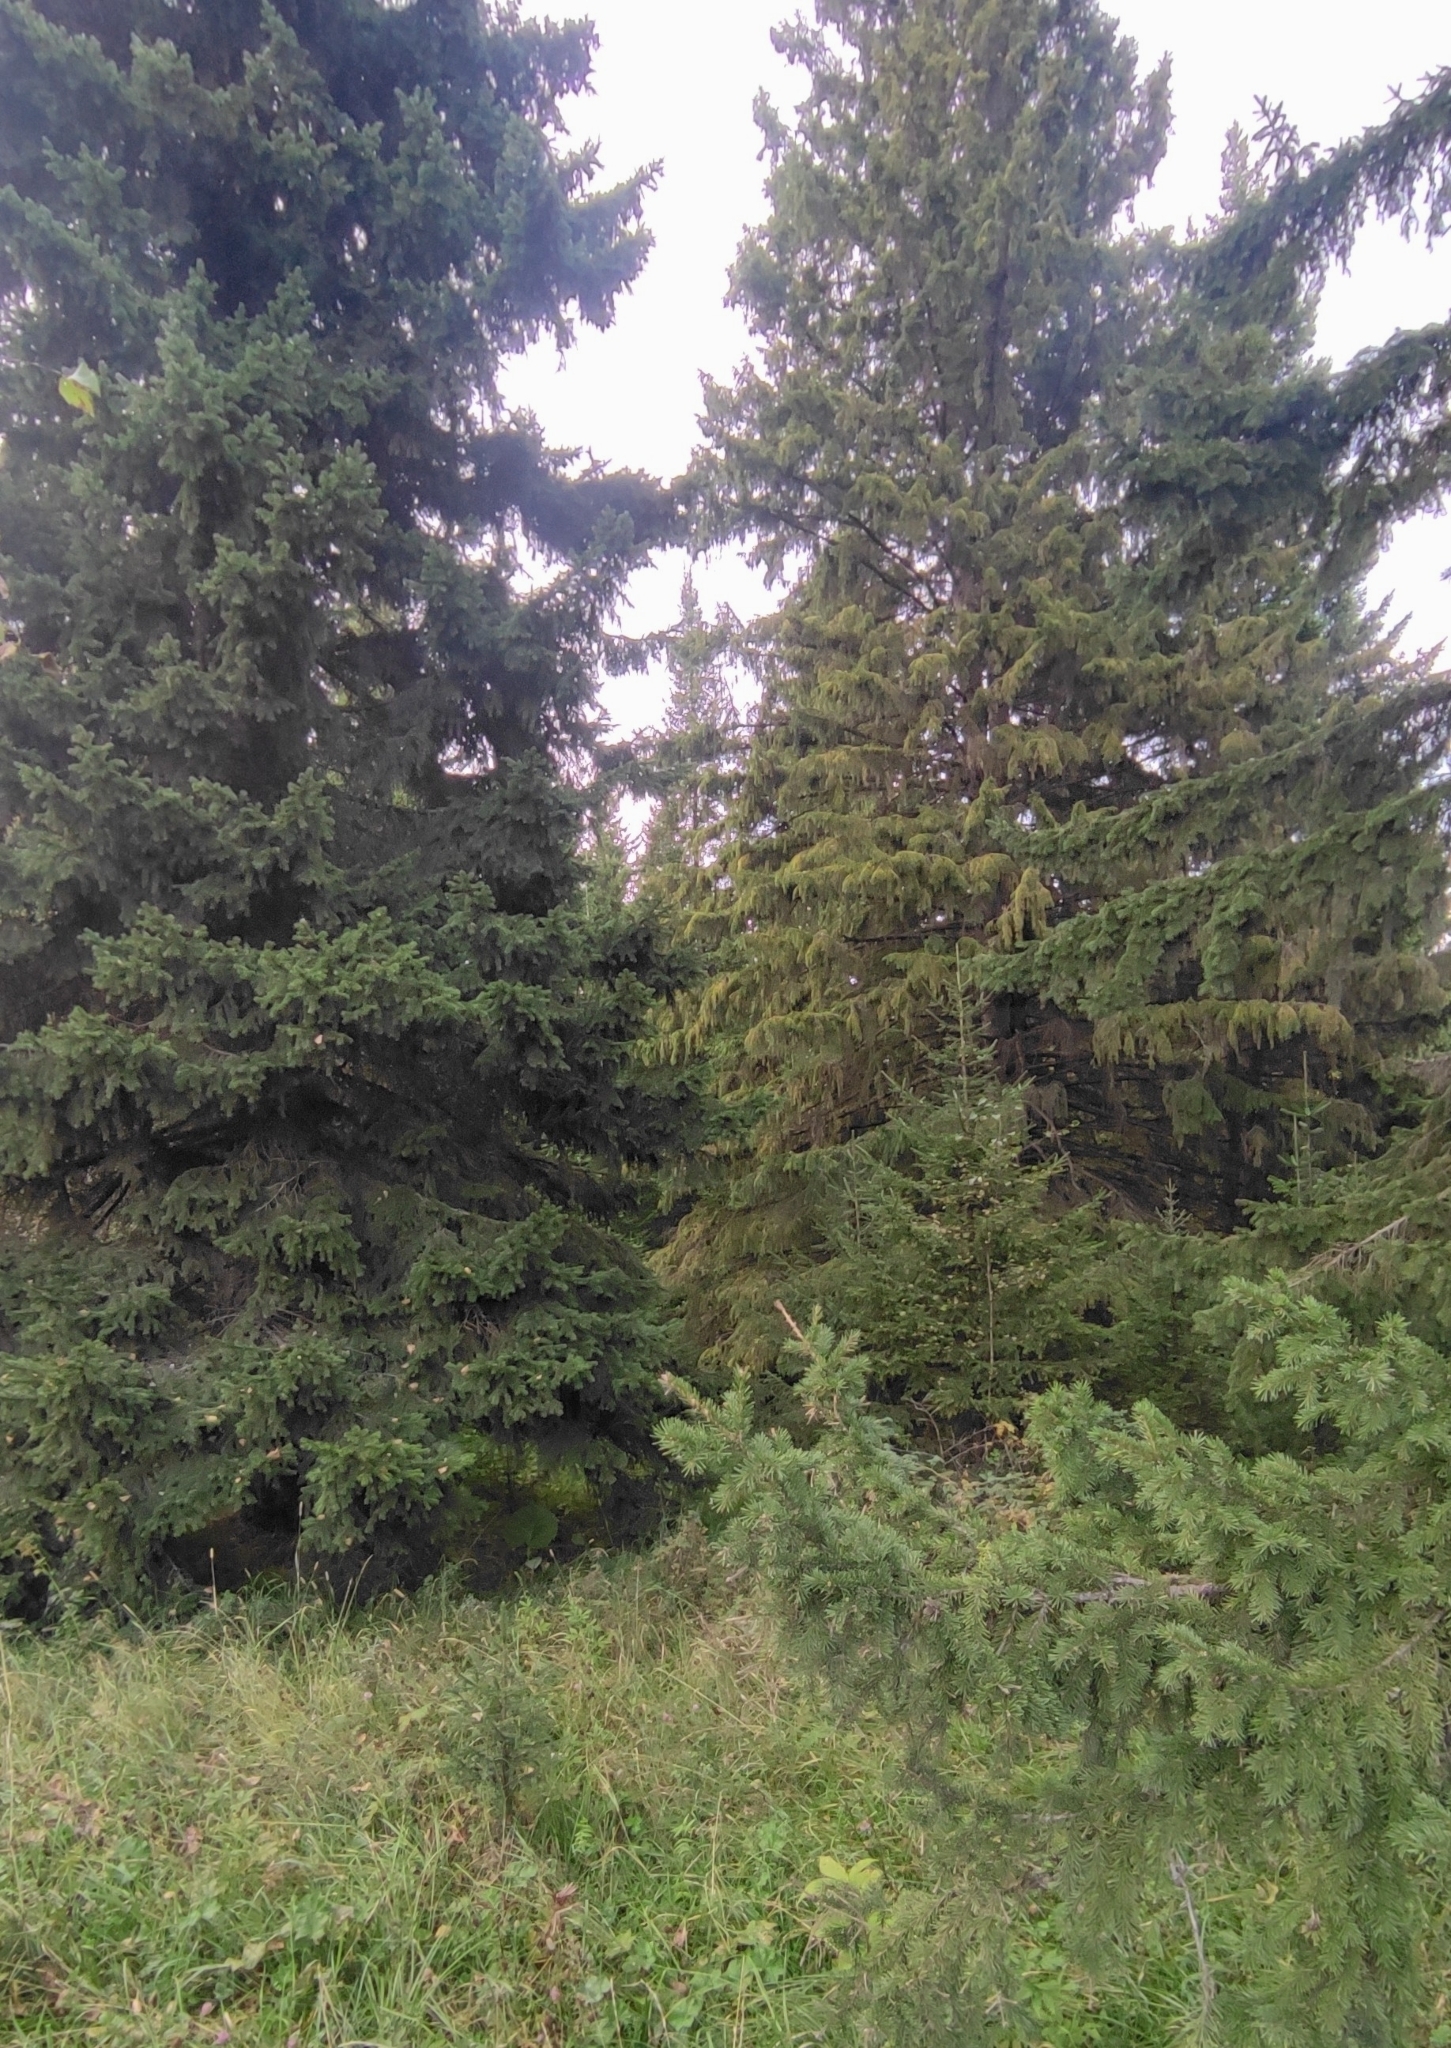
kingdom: Plantae
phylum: Tracheophyta
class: Pinopsida
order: Pinales
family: Pinaceae
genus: Picea
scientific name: Picea obovata
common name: Siberian spruce
